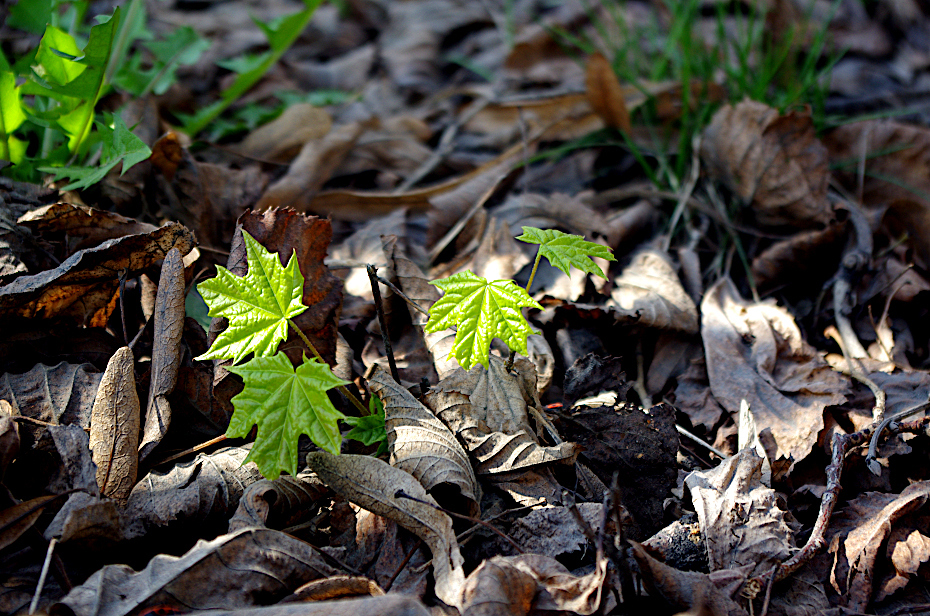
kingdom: Plantae
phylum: Tracheophyta
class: Magnoliopsida
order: Sapindales
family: Sapindaceae
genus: Acer
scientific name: Acer platanoides
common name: Norway maple
